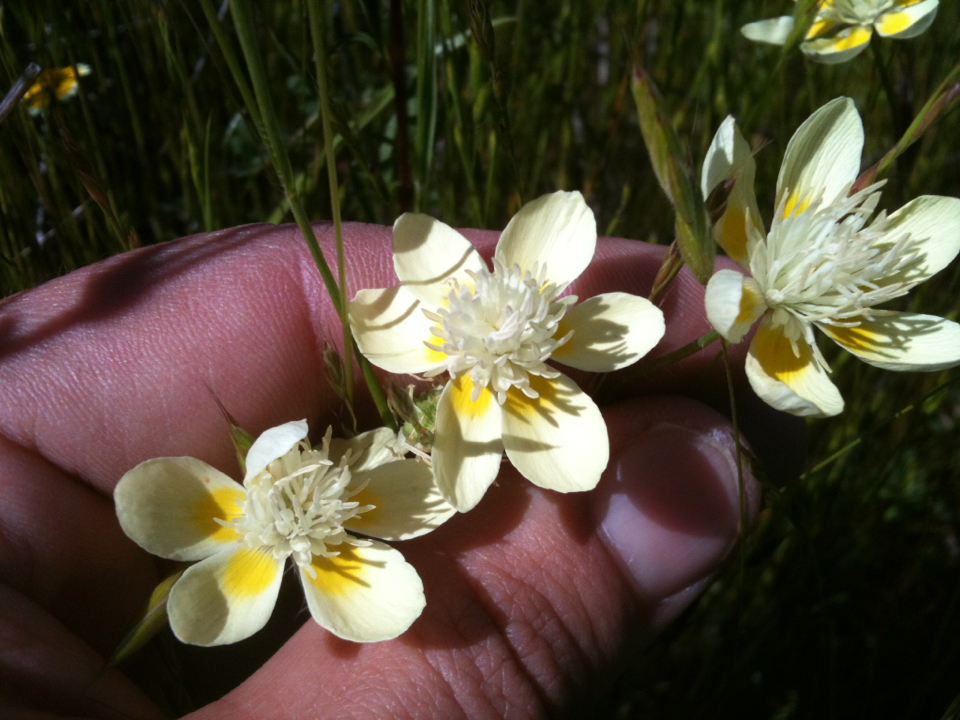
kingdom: Plantae
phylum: Tracheophyta
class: Magnoliopsida
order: Ranunculales
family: Papaveraceae
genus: Platystemon
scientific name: Platystemon californicus
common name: Cream-cups
